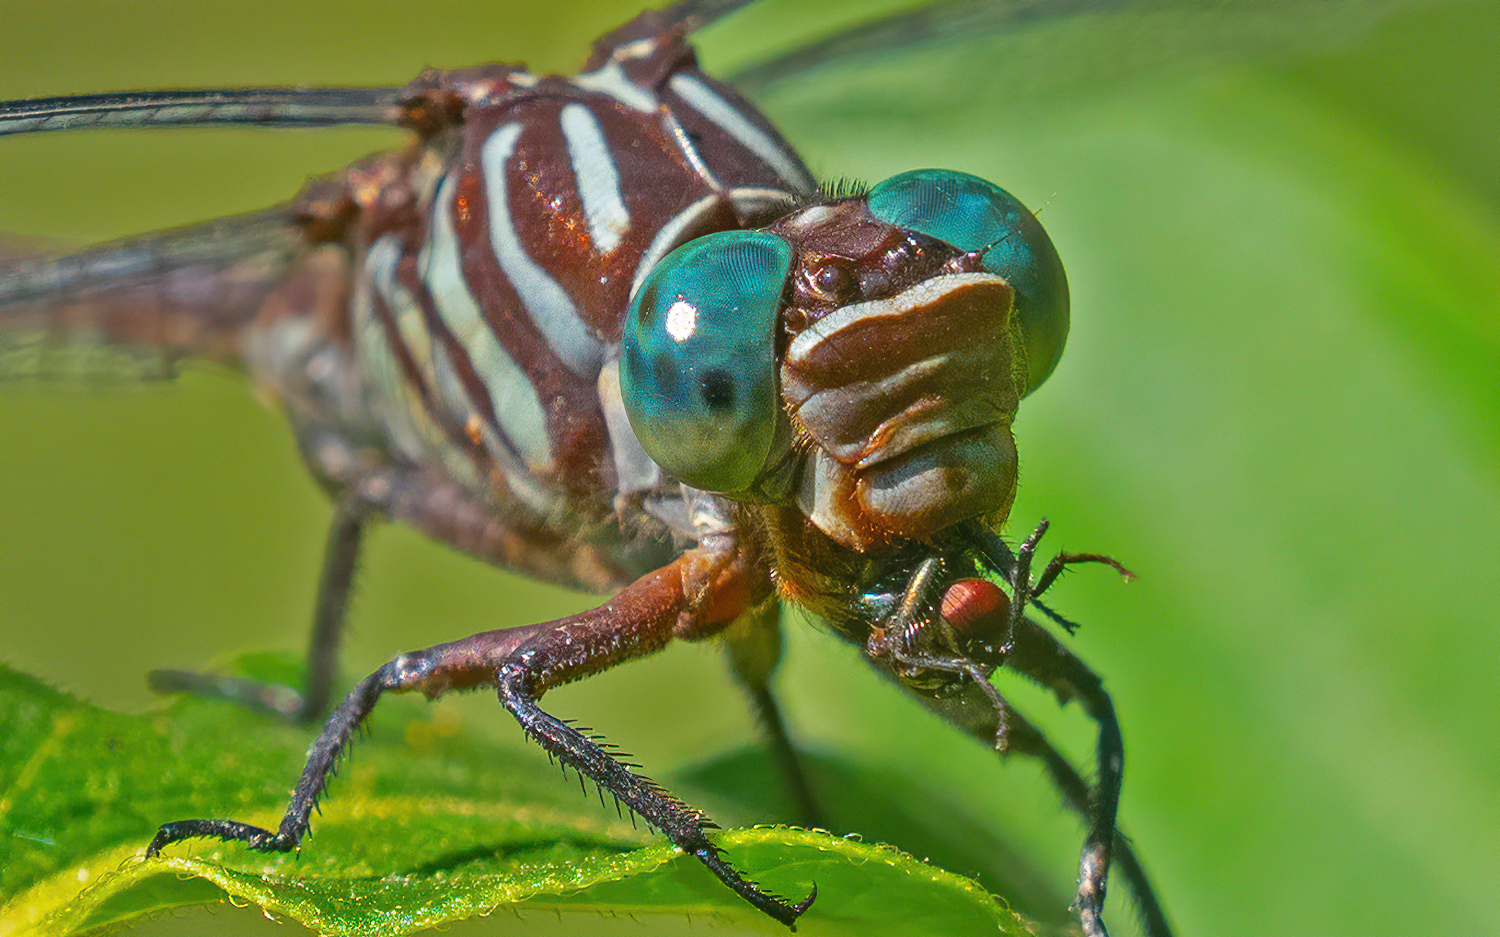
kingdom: Animalia
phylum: Arthropoda
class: Insecta
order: Odonata
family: Gomphidae
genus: Stylurus
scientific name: Stylurus plagiatus
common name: Russet-tipped clubtail
